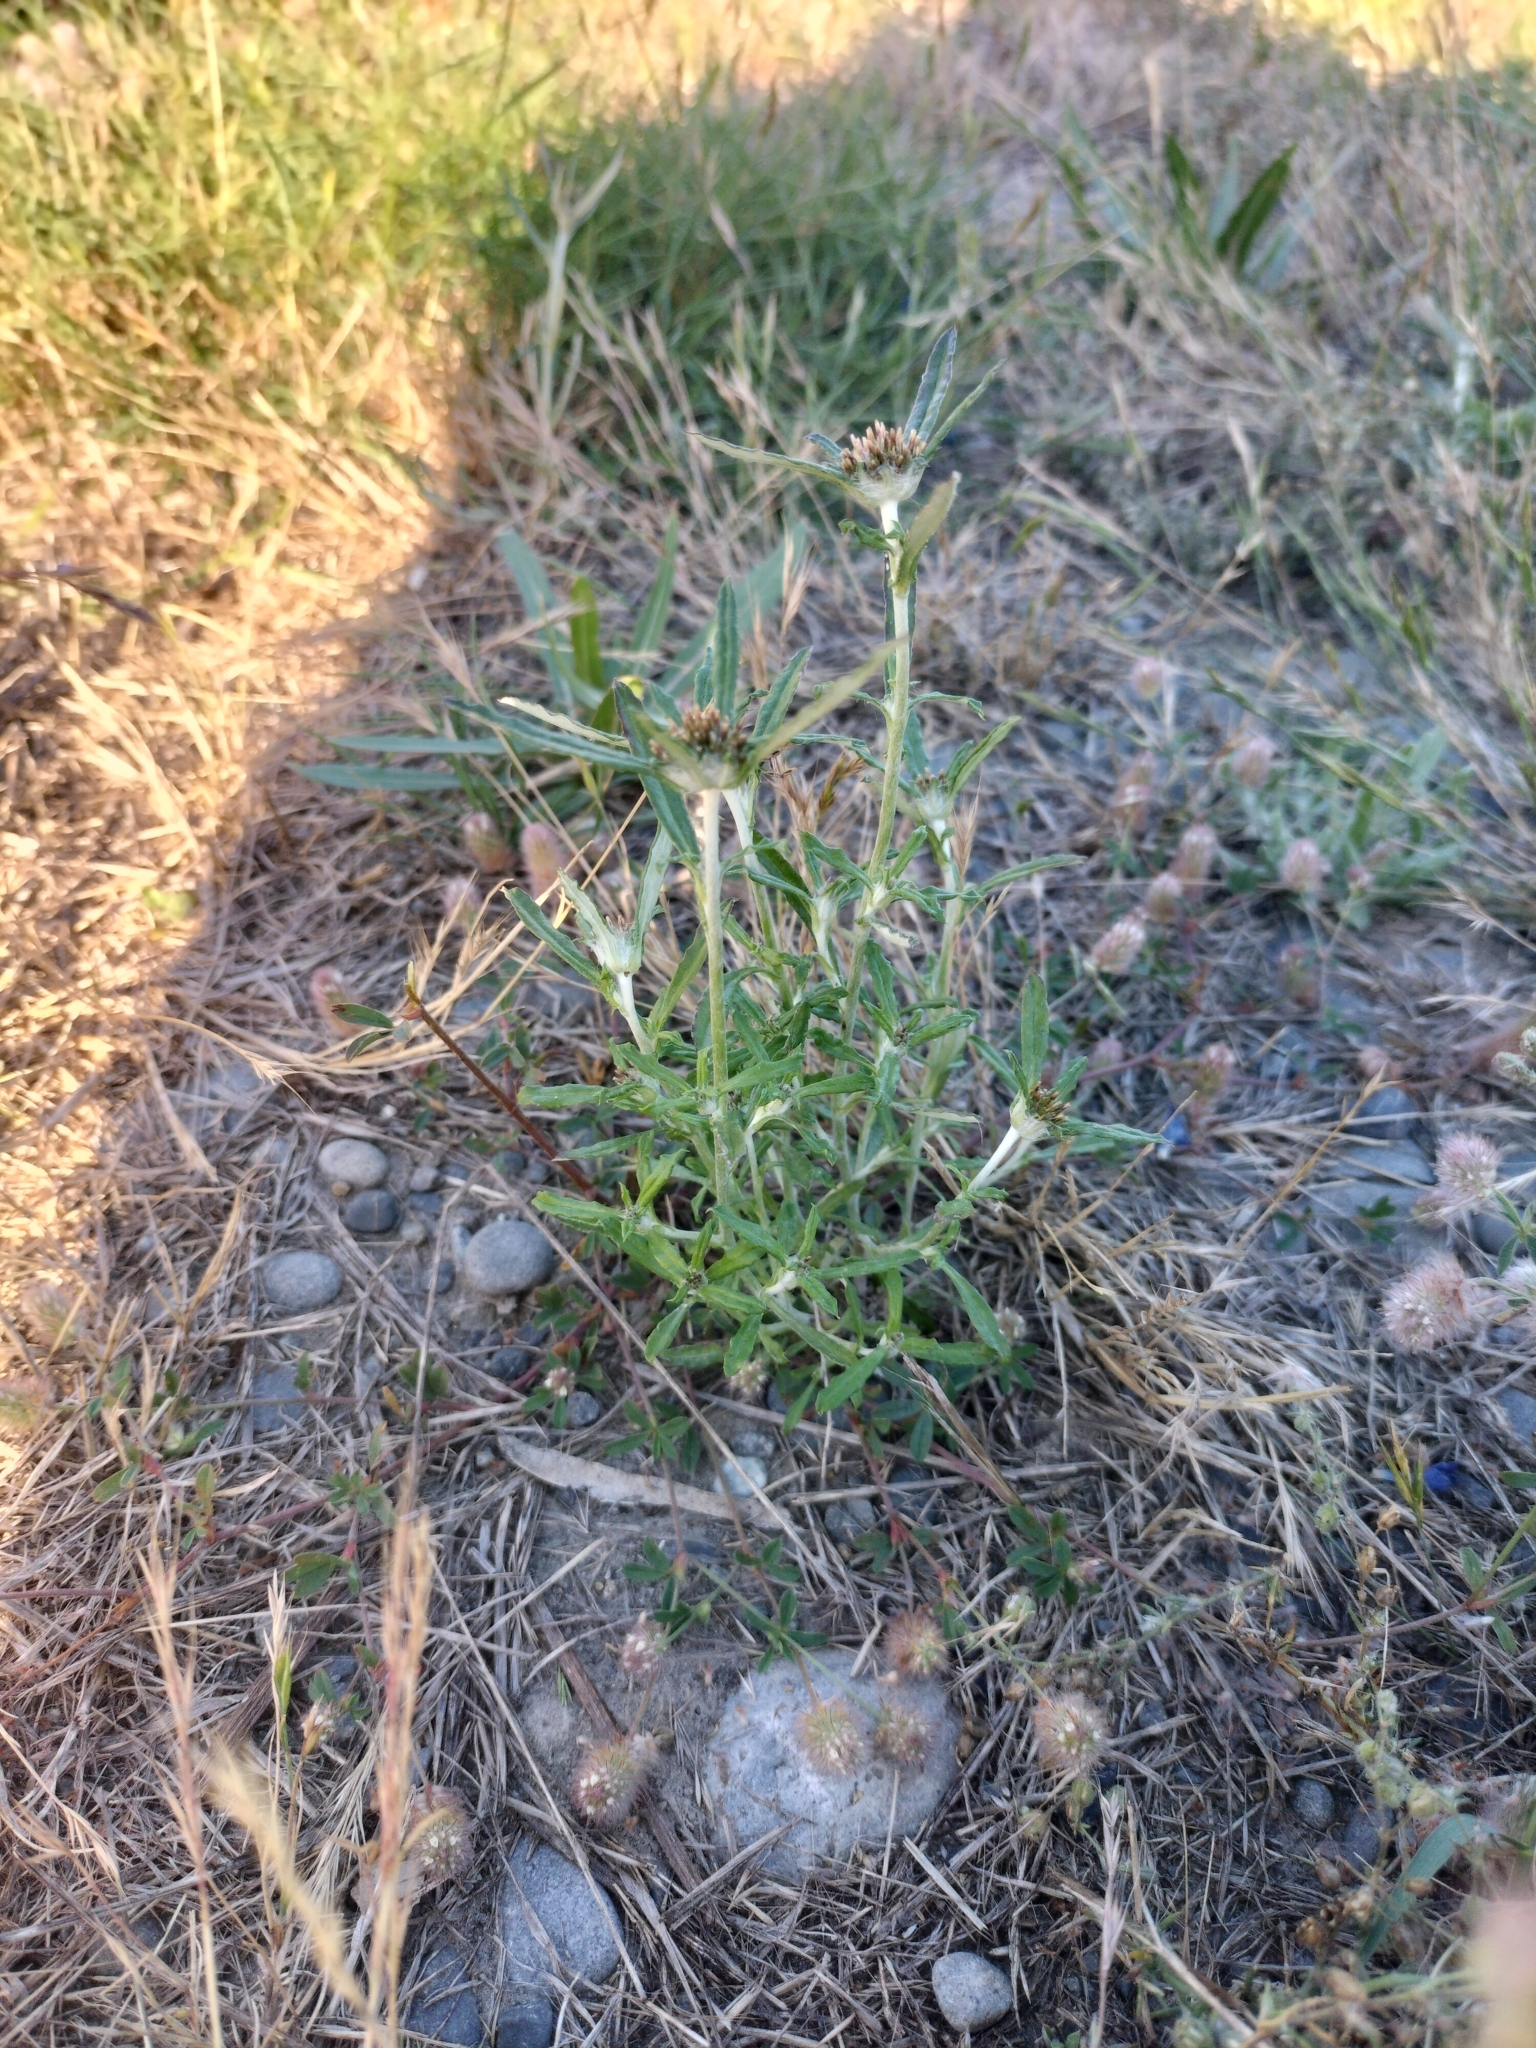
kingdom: Plantae
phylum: Tracheophyta
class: Magnoliopsida
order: Asterales
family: Asteraceae
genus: Euchiton
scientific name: Euchiton sphaericus
